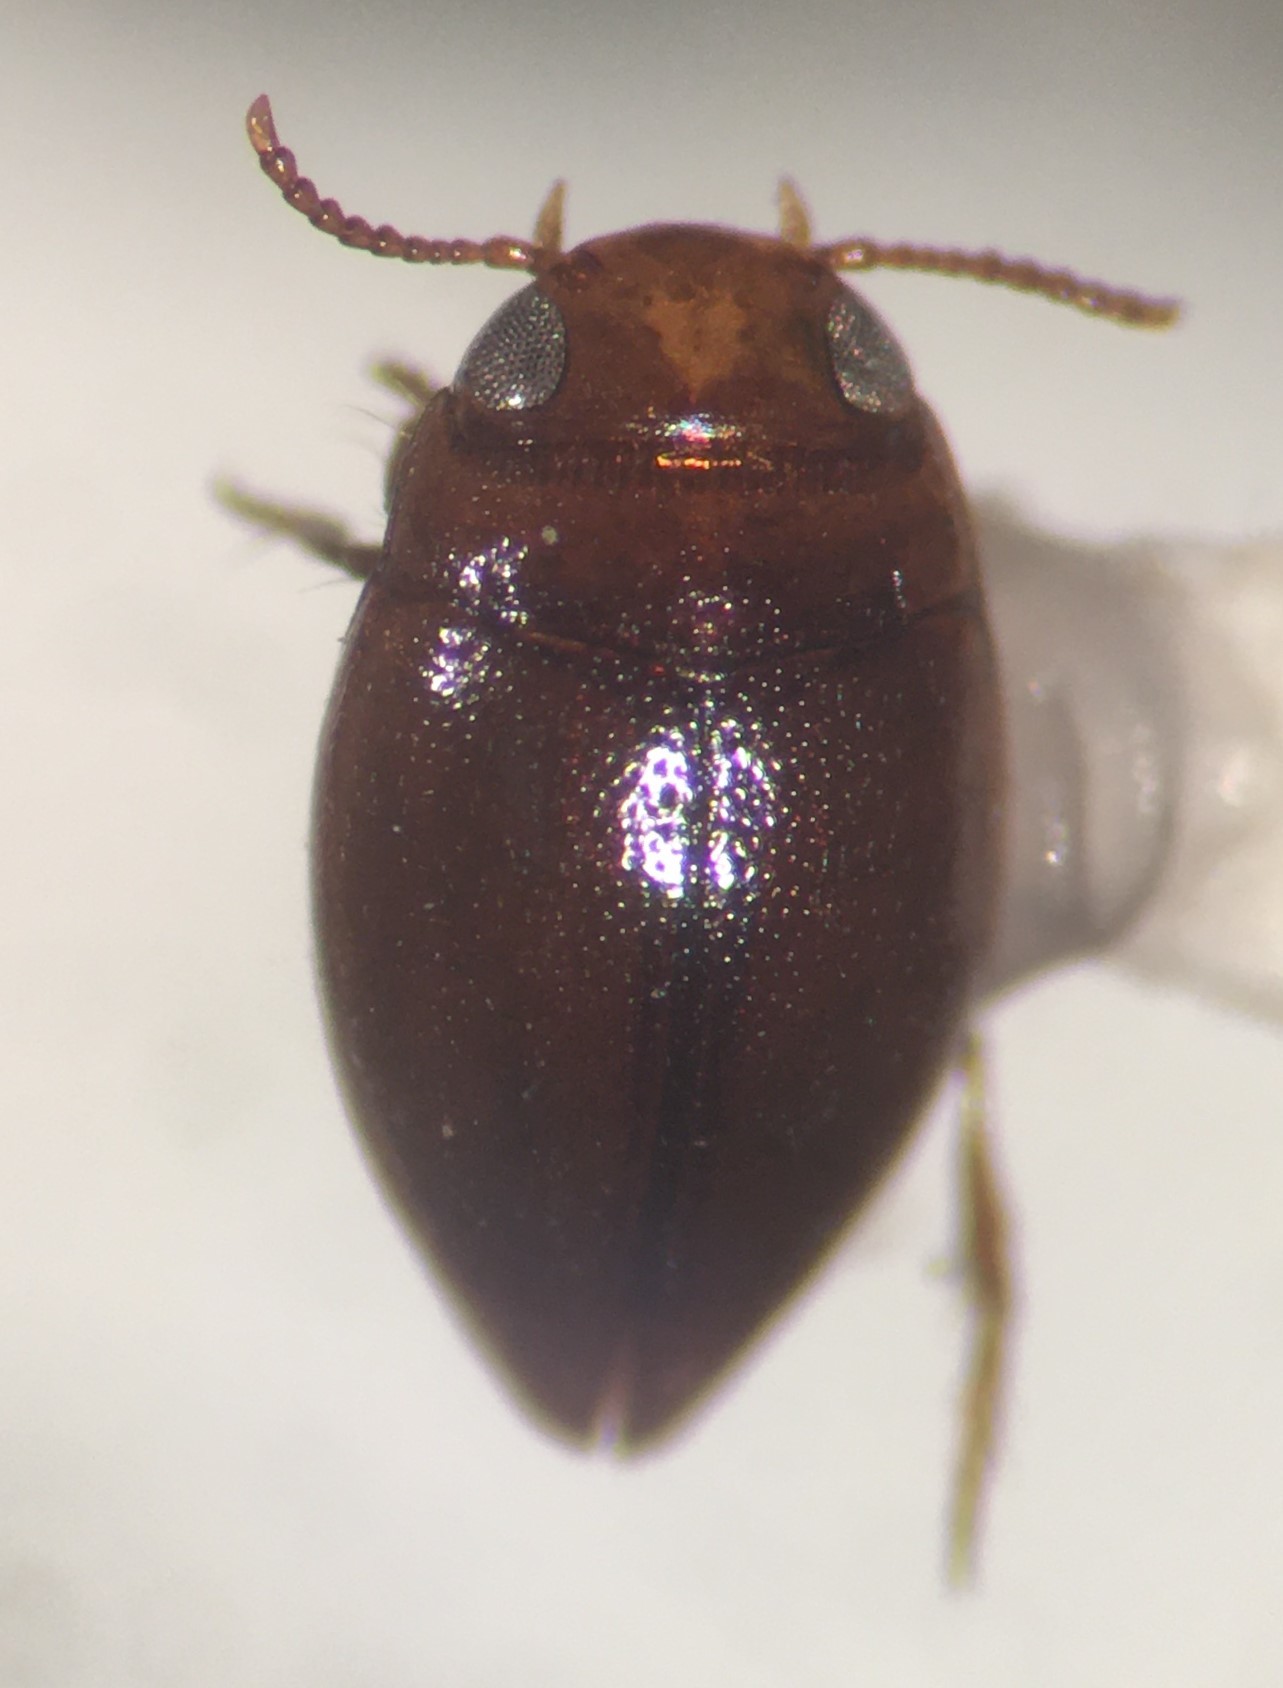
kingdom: Animalia
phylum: Arthropoda
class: Insecta
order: Coleoptera
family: Dytiscidae
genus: Brachyvatus
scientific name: Brachyvatus apicatus
